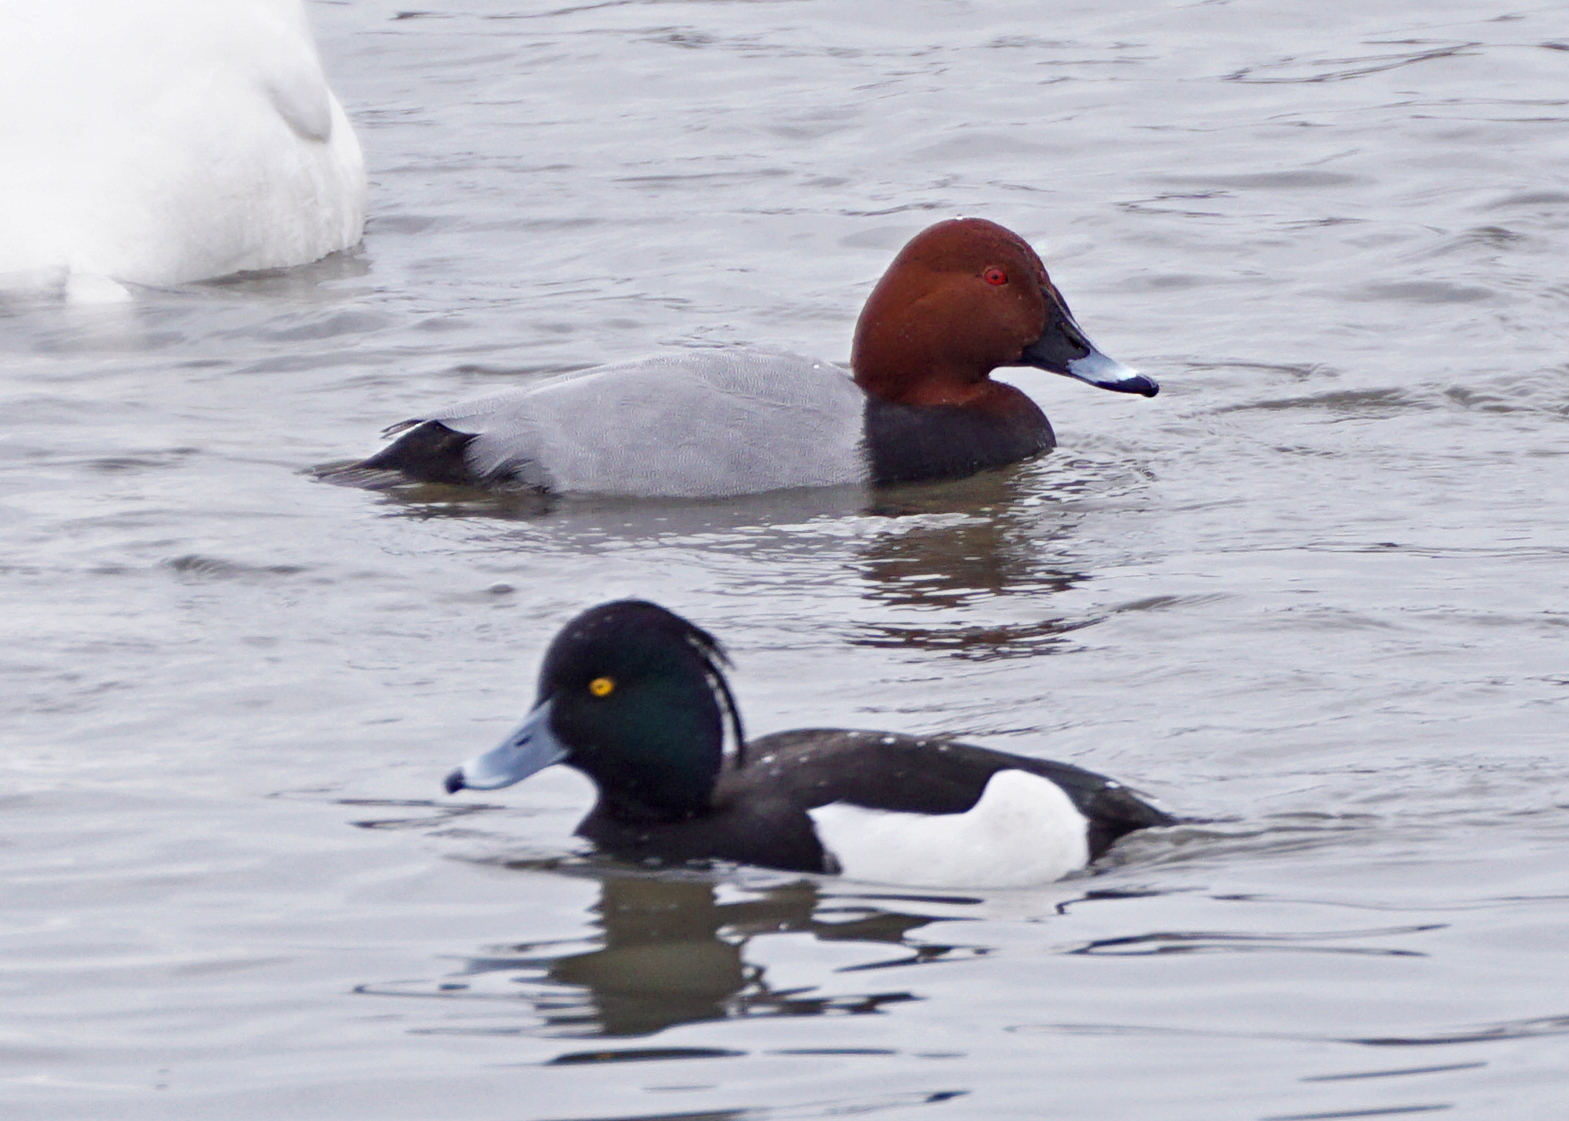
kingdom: Animalia
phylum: Chordata
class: Aves
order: Anseriformes
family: Anatidae
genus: Aythya
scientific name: Aythya ferina
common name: Common pochard
